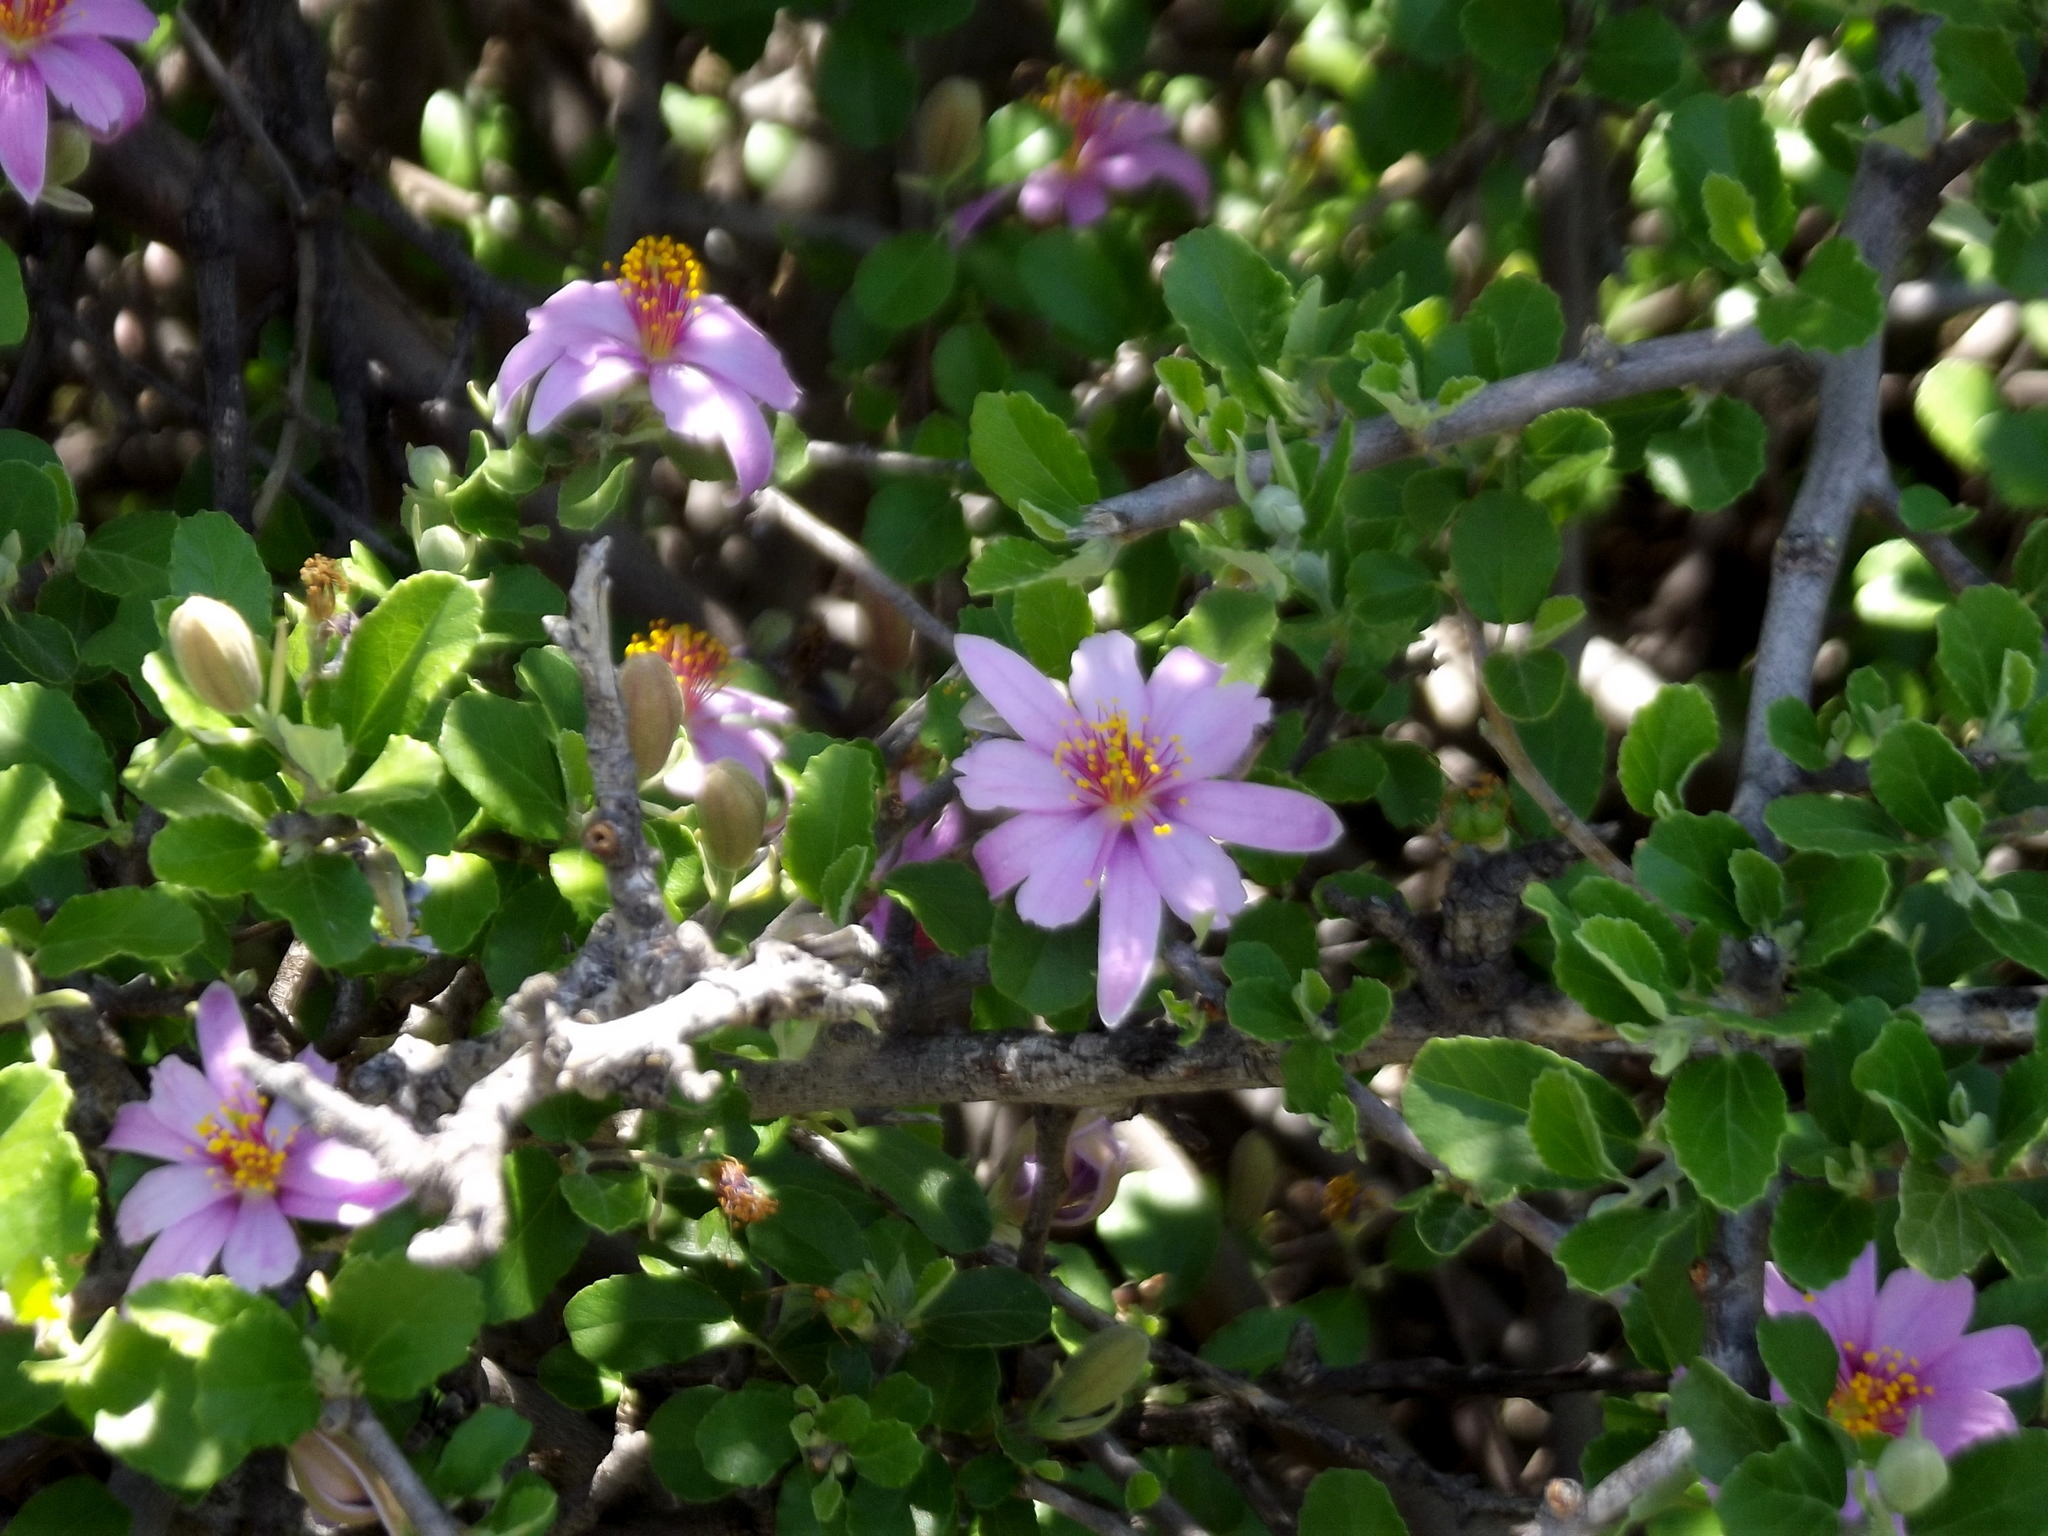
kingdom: Plantae
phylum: Tracheophyta
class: Magnoliopsida
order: Malvales
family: Malvaceae
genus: Grewia
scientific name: Grewia robusta
